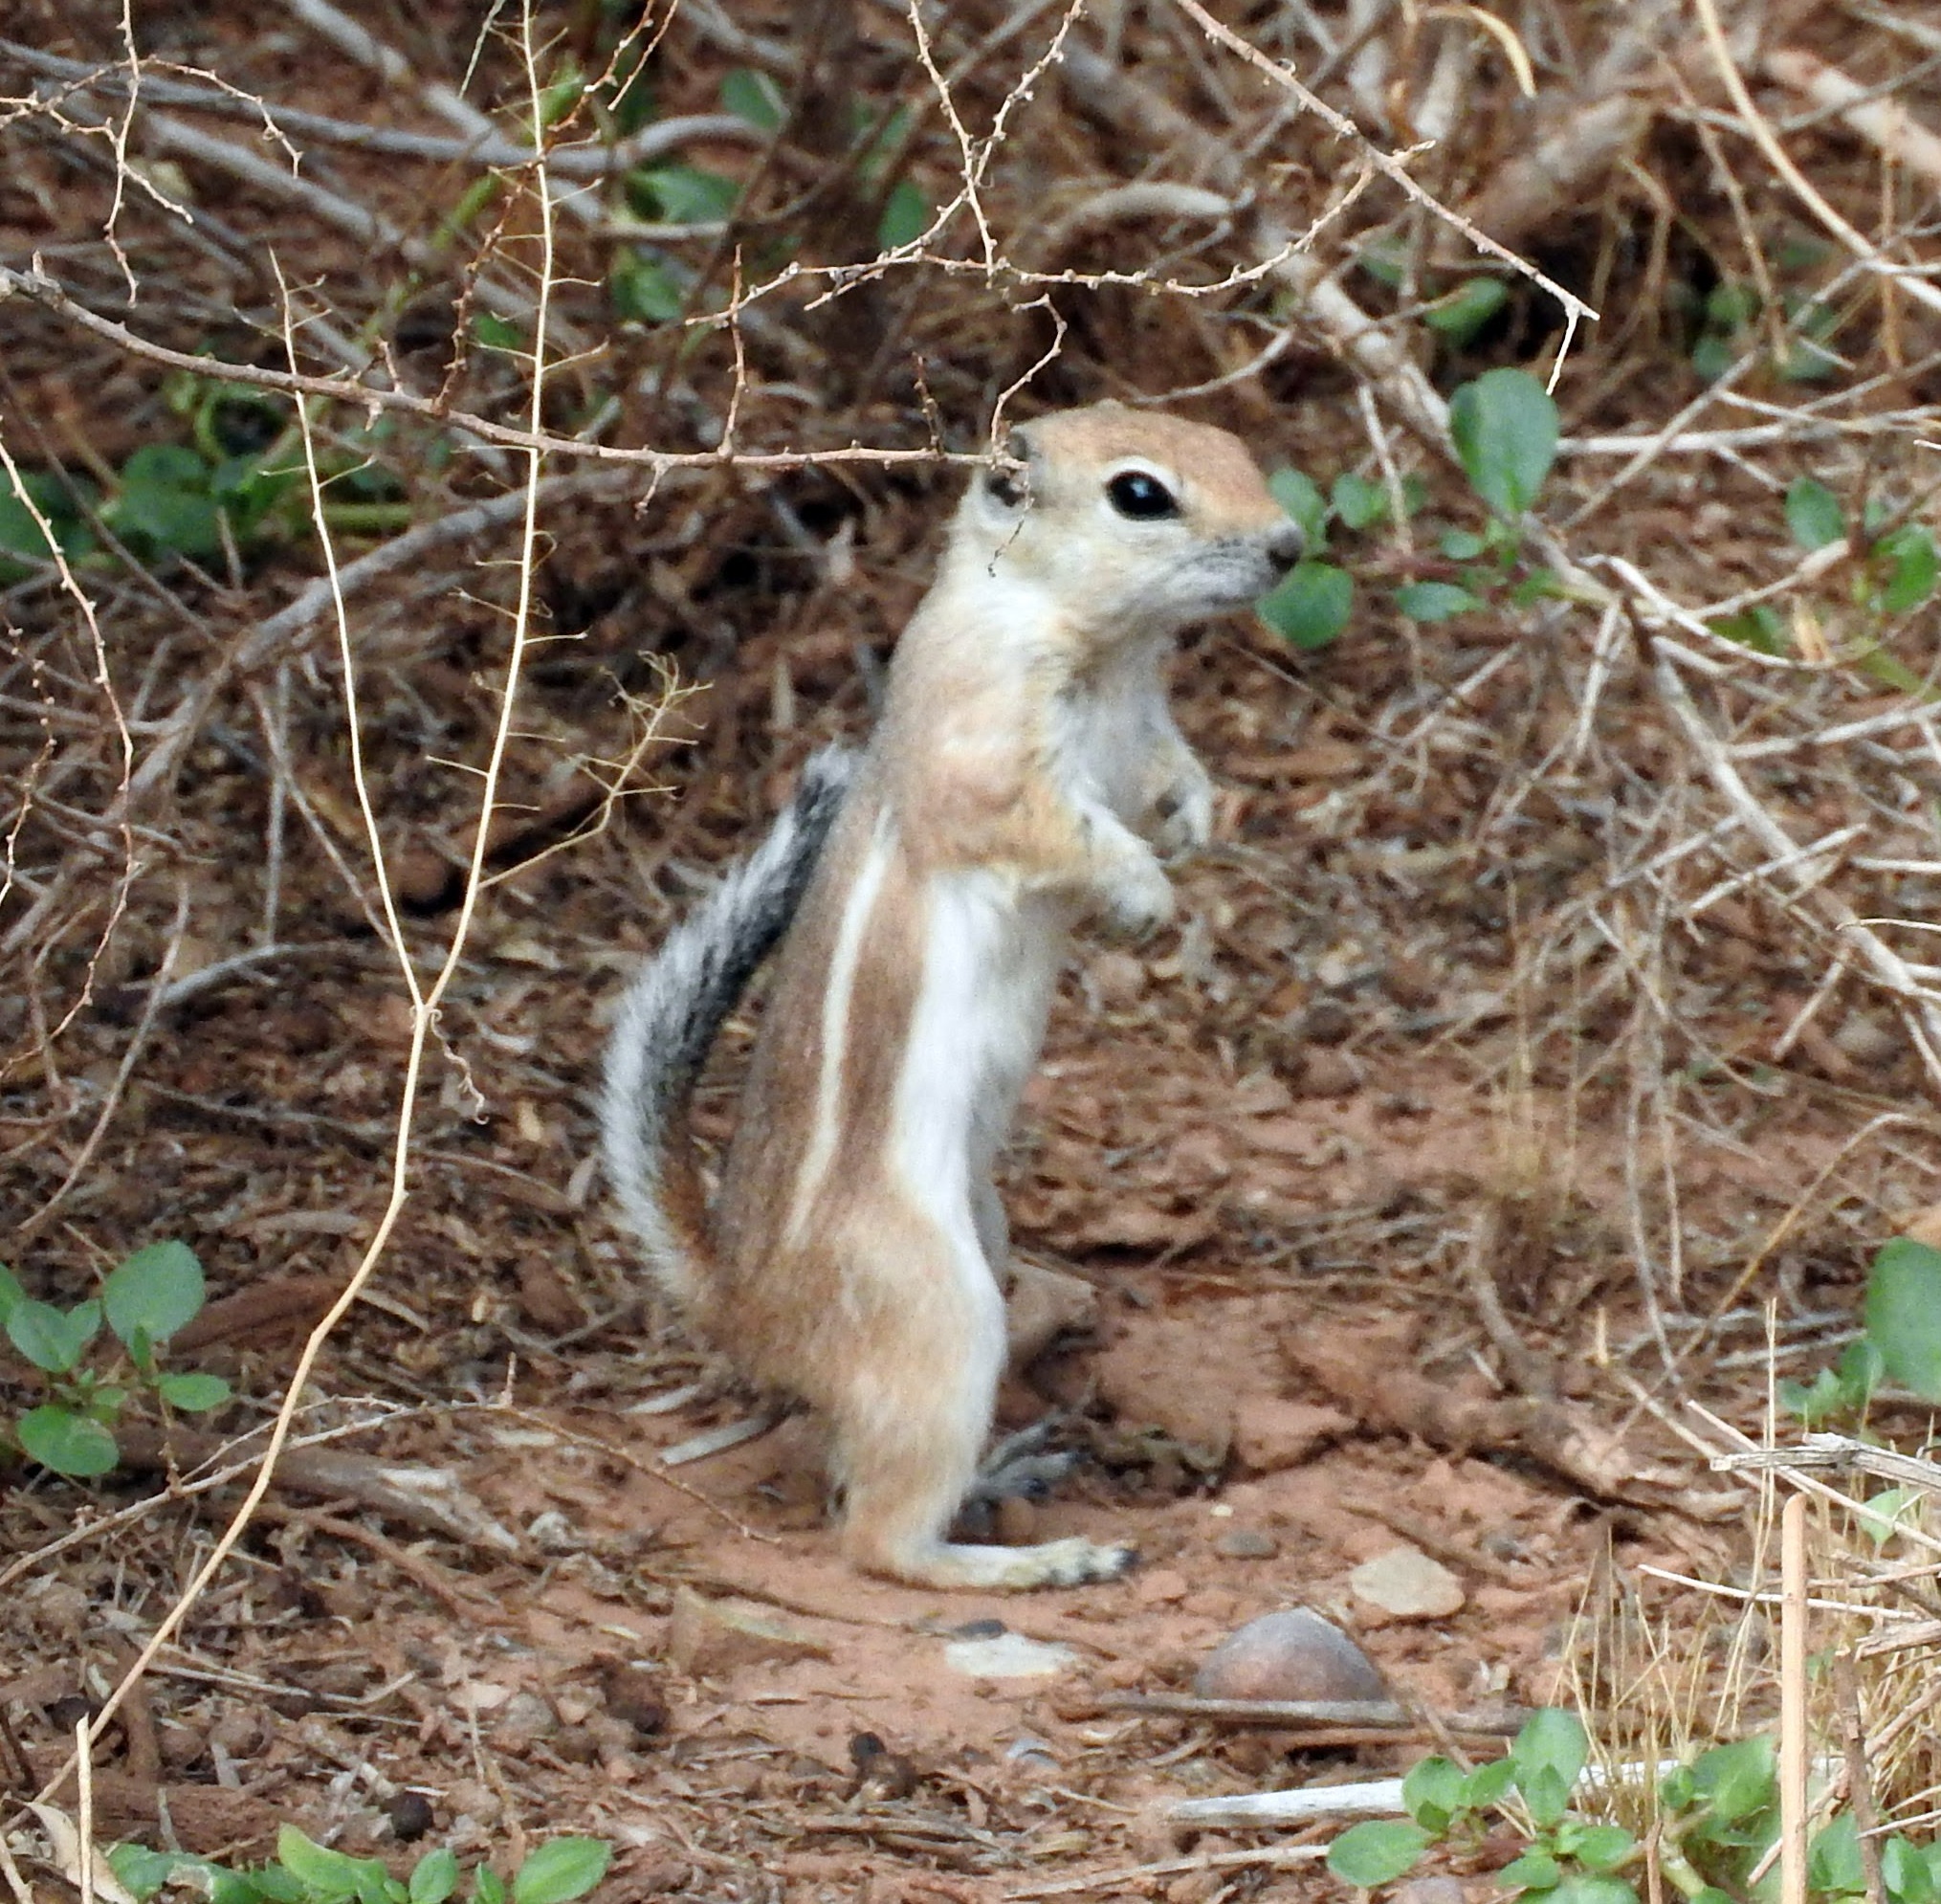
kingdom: Animalia
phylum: Chordata
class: Mammalia
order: Rodentia
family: Sciuridae
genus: Ammospermophilus
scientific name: Ammospermophilus leucurus
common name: White-tailed antelope squirrel
